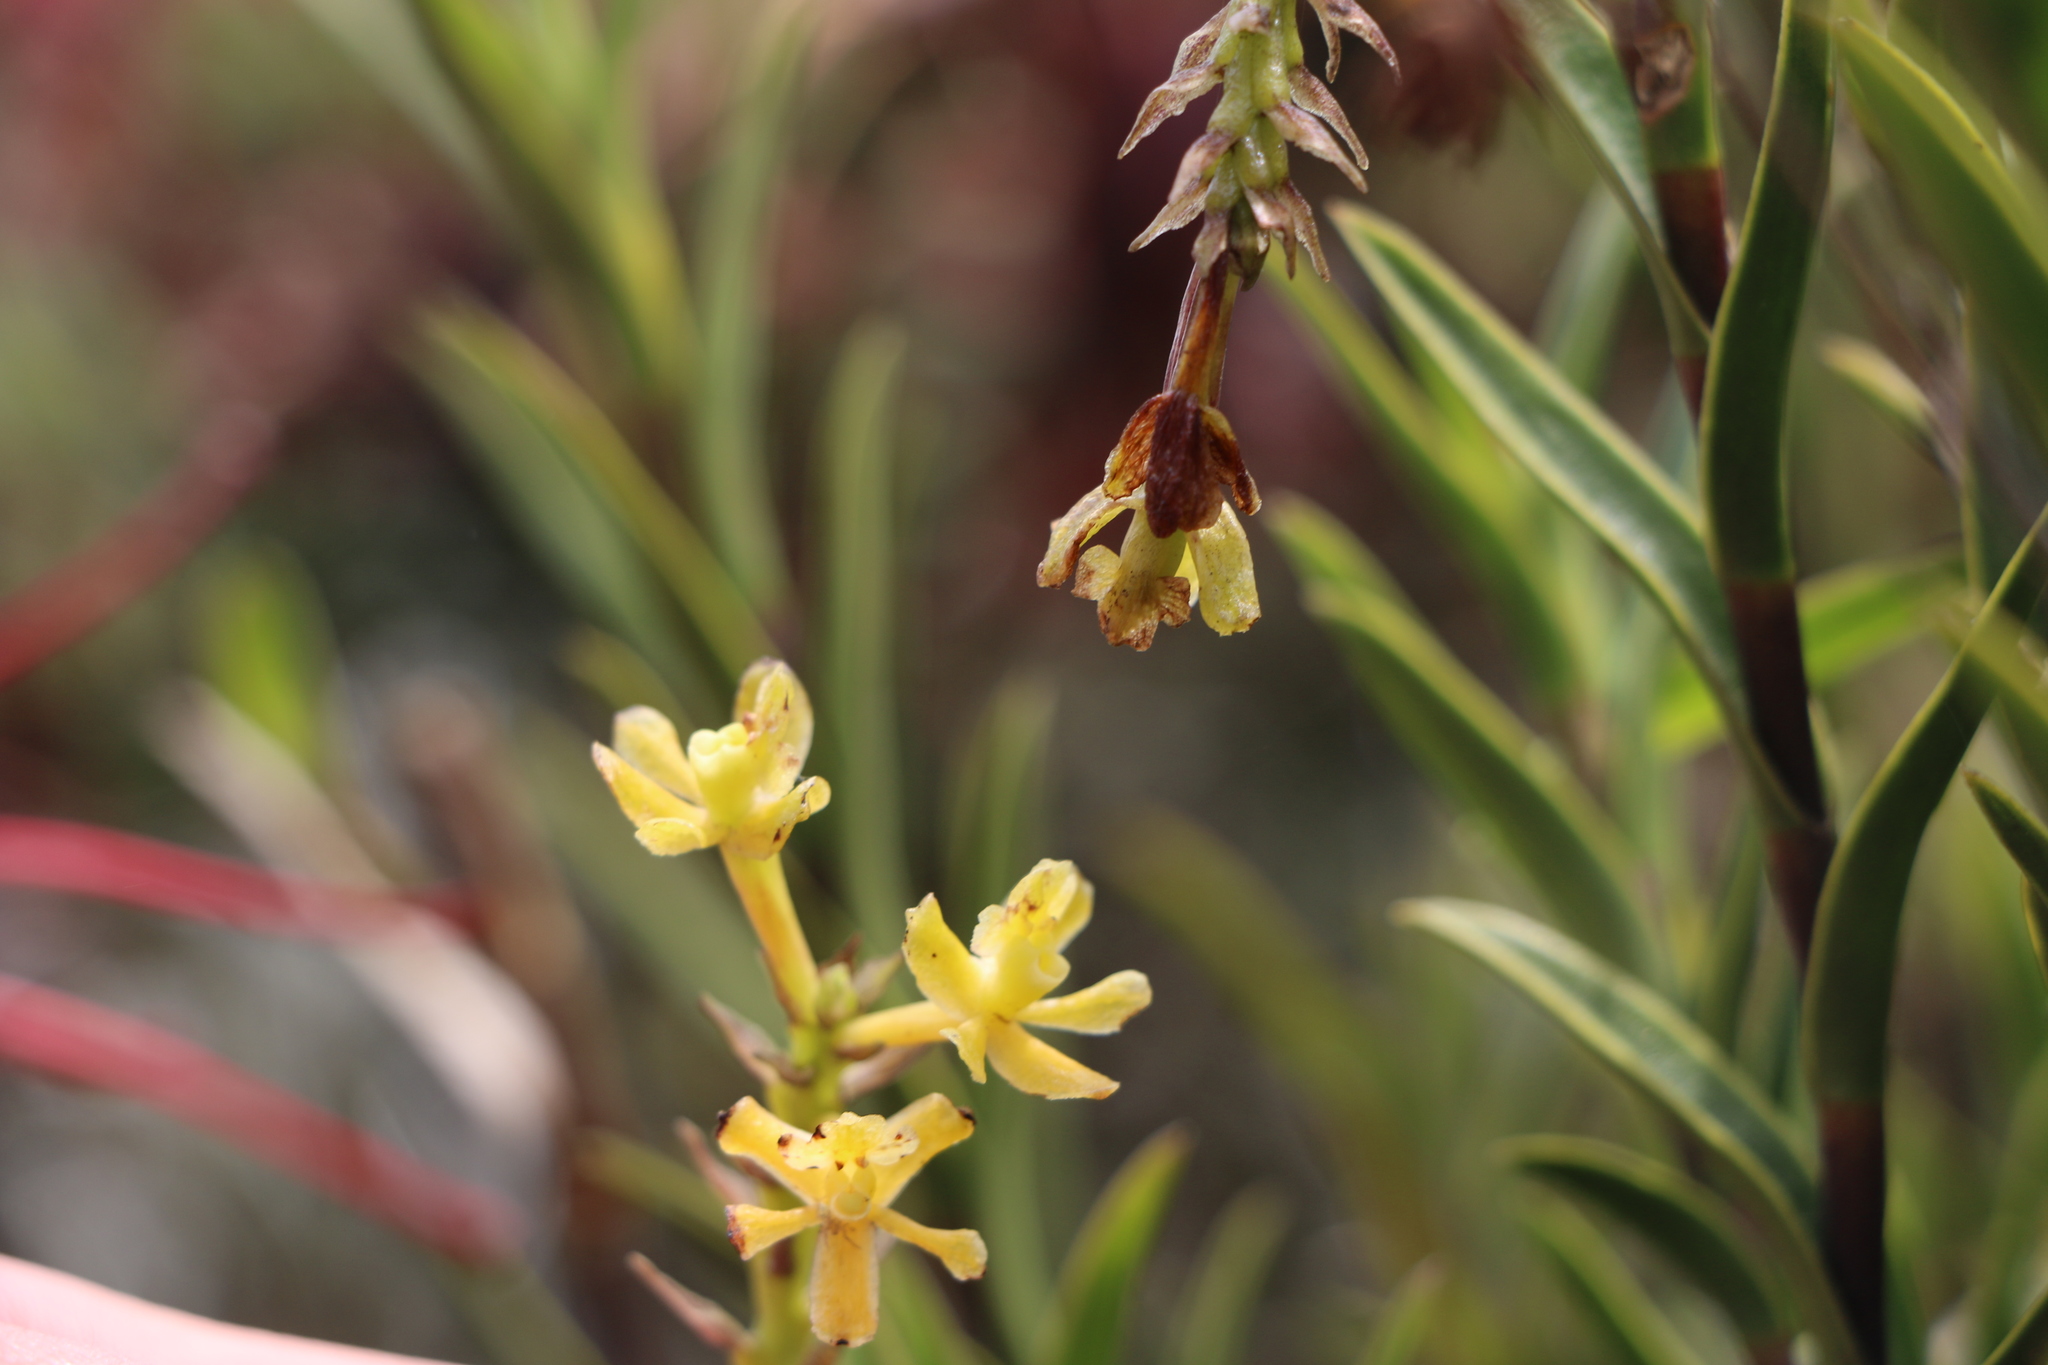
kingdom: Plantae
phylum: Tracheophyta
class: Liliopsida
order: Asparagales
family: Orchidaceae
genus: Epidendrum
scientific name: Epidendrum zipaquiranum
